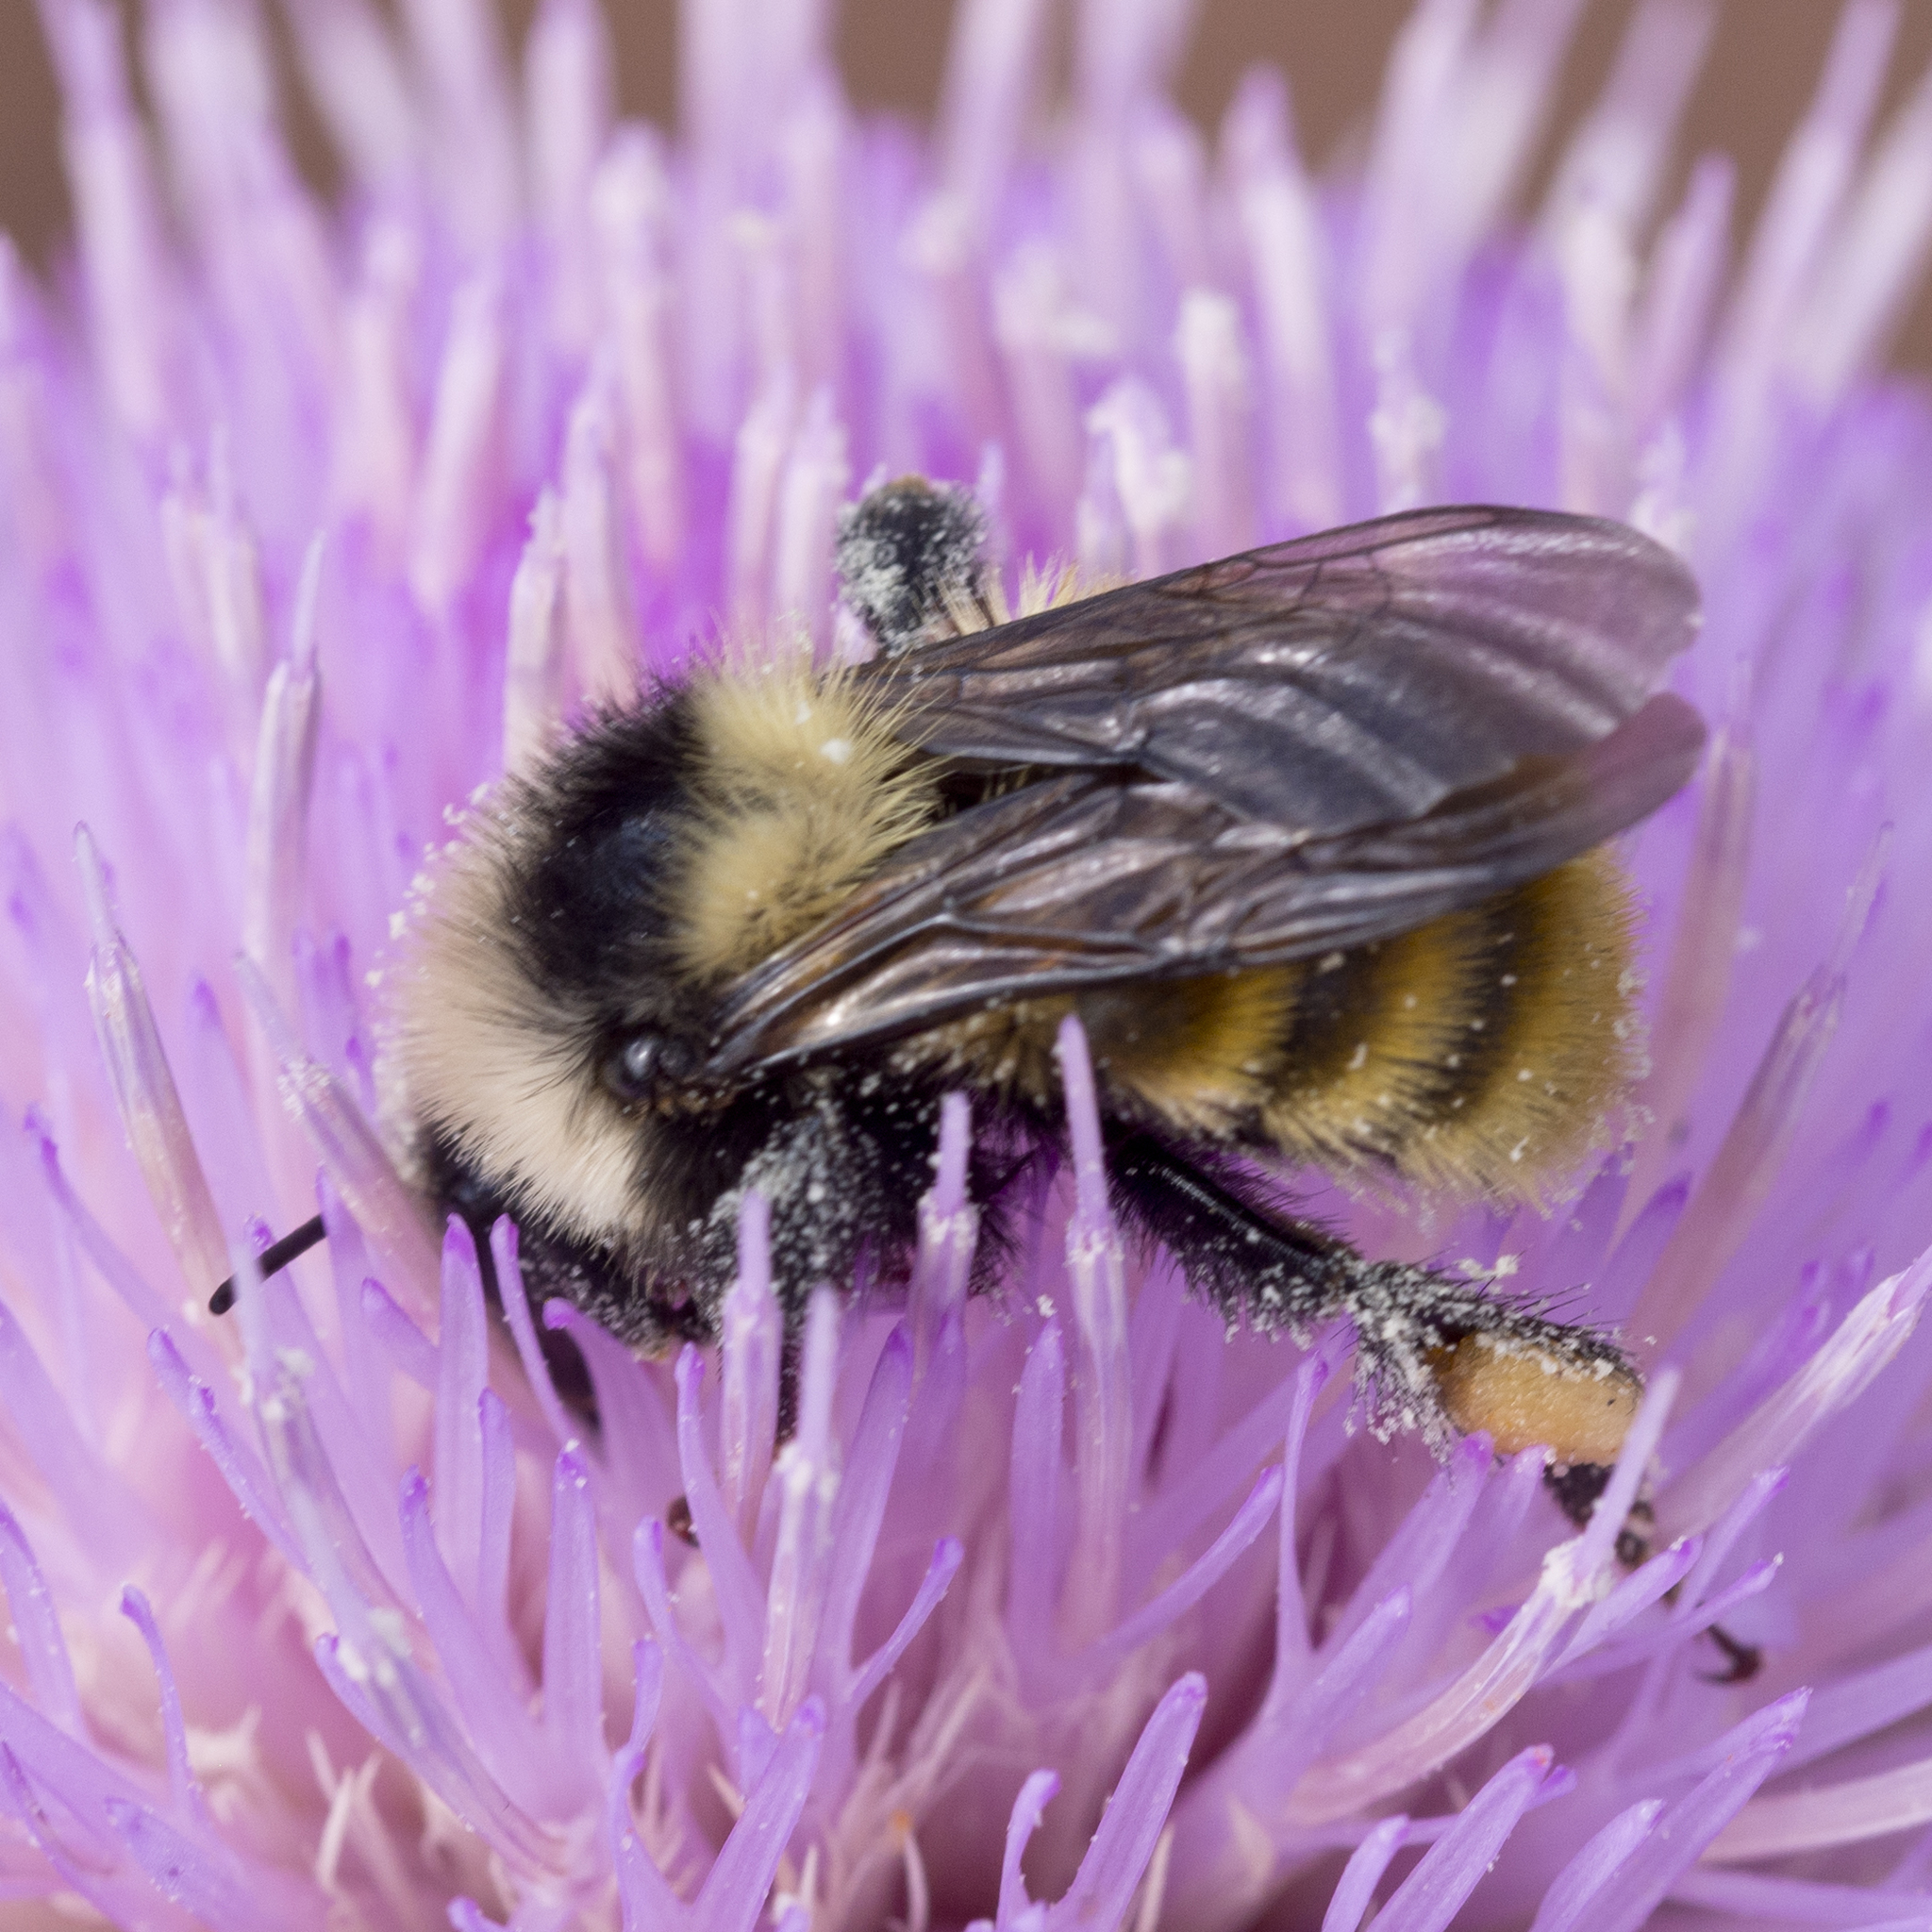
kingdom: Animalia
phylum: Arthropoda
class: Insecta
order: Hymenoptera
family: Apidae
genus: Bombus
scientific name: Bombus appositus
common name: White-shouldered bumble bee
